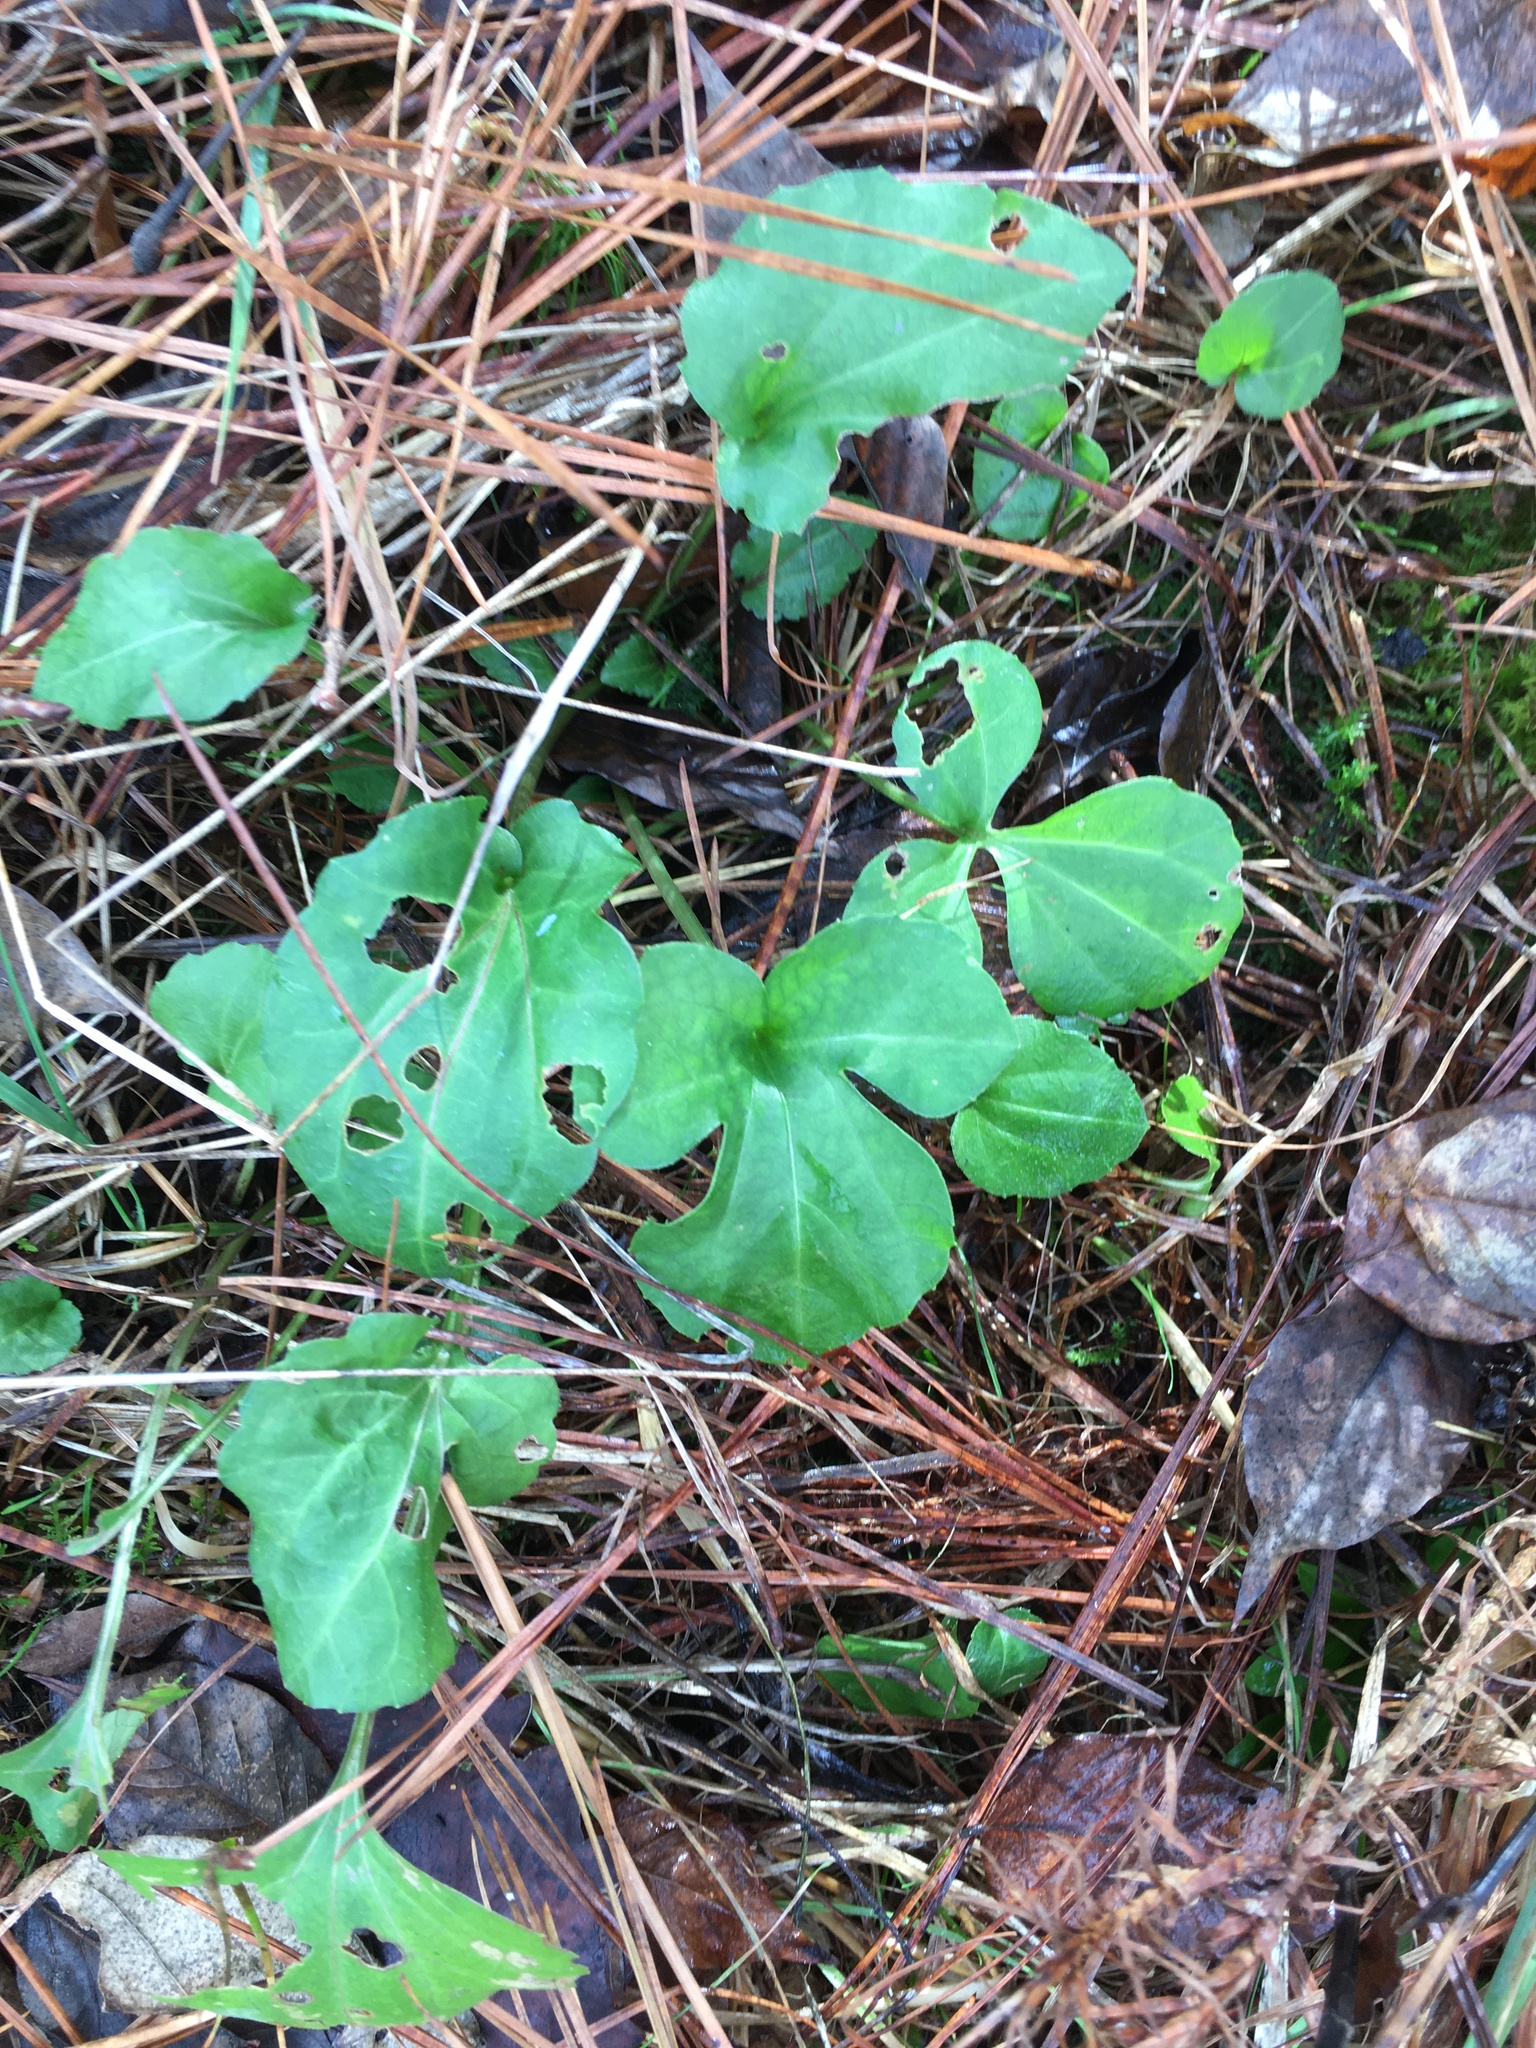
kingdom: Plantae
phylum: Tracheophyta
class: Magnoliopsida
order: Asterales
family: Asteraceae
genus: Rudbeckia
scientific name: Rudbeckia laciniata
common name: Coneflower
